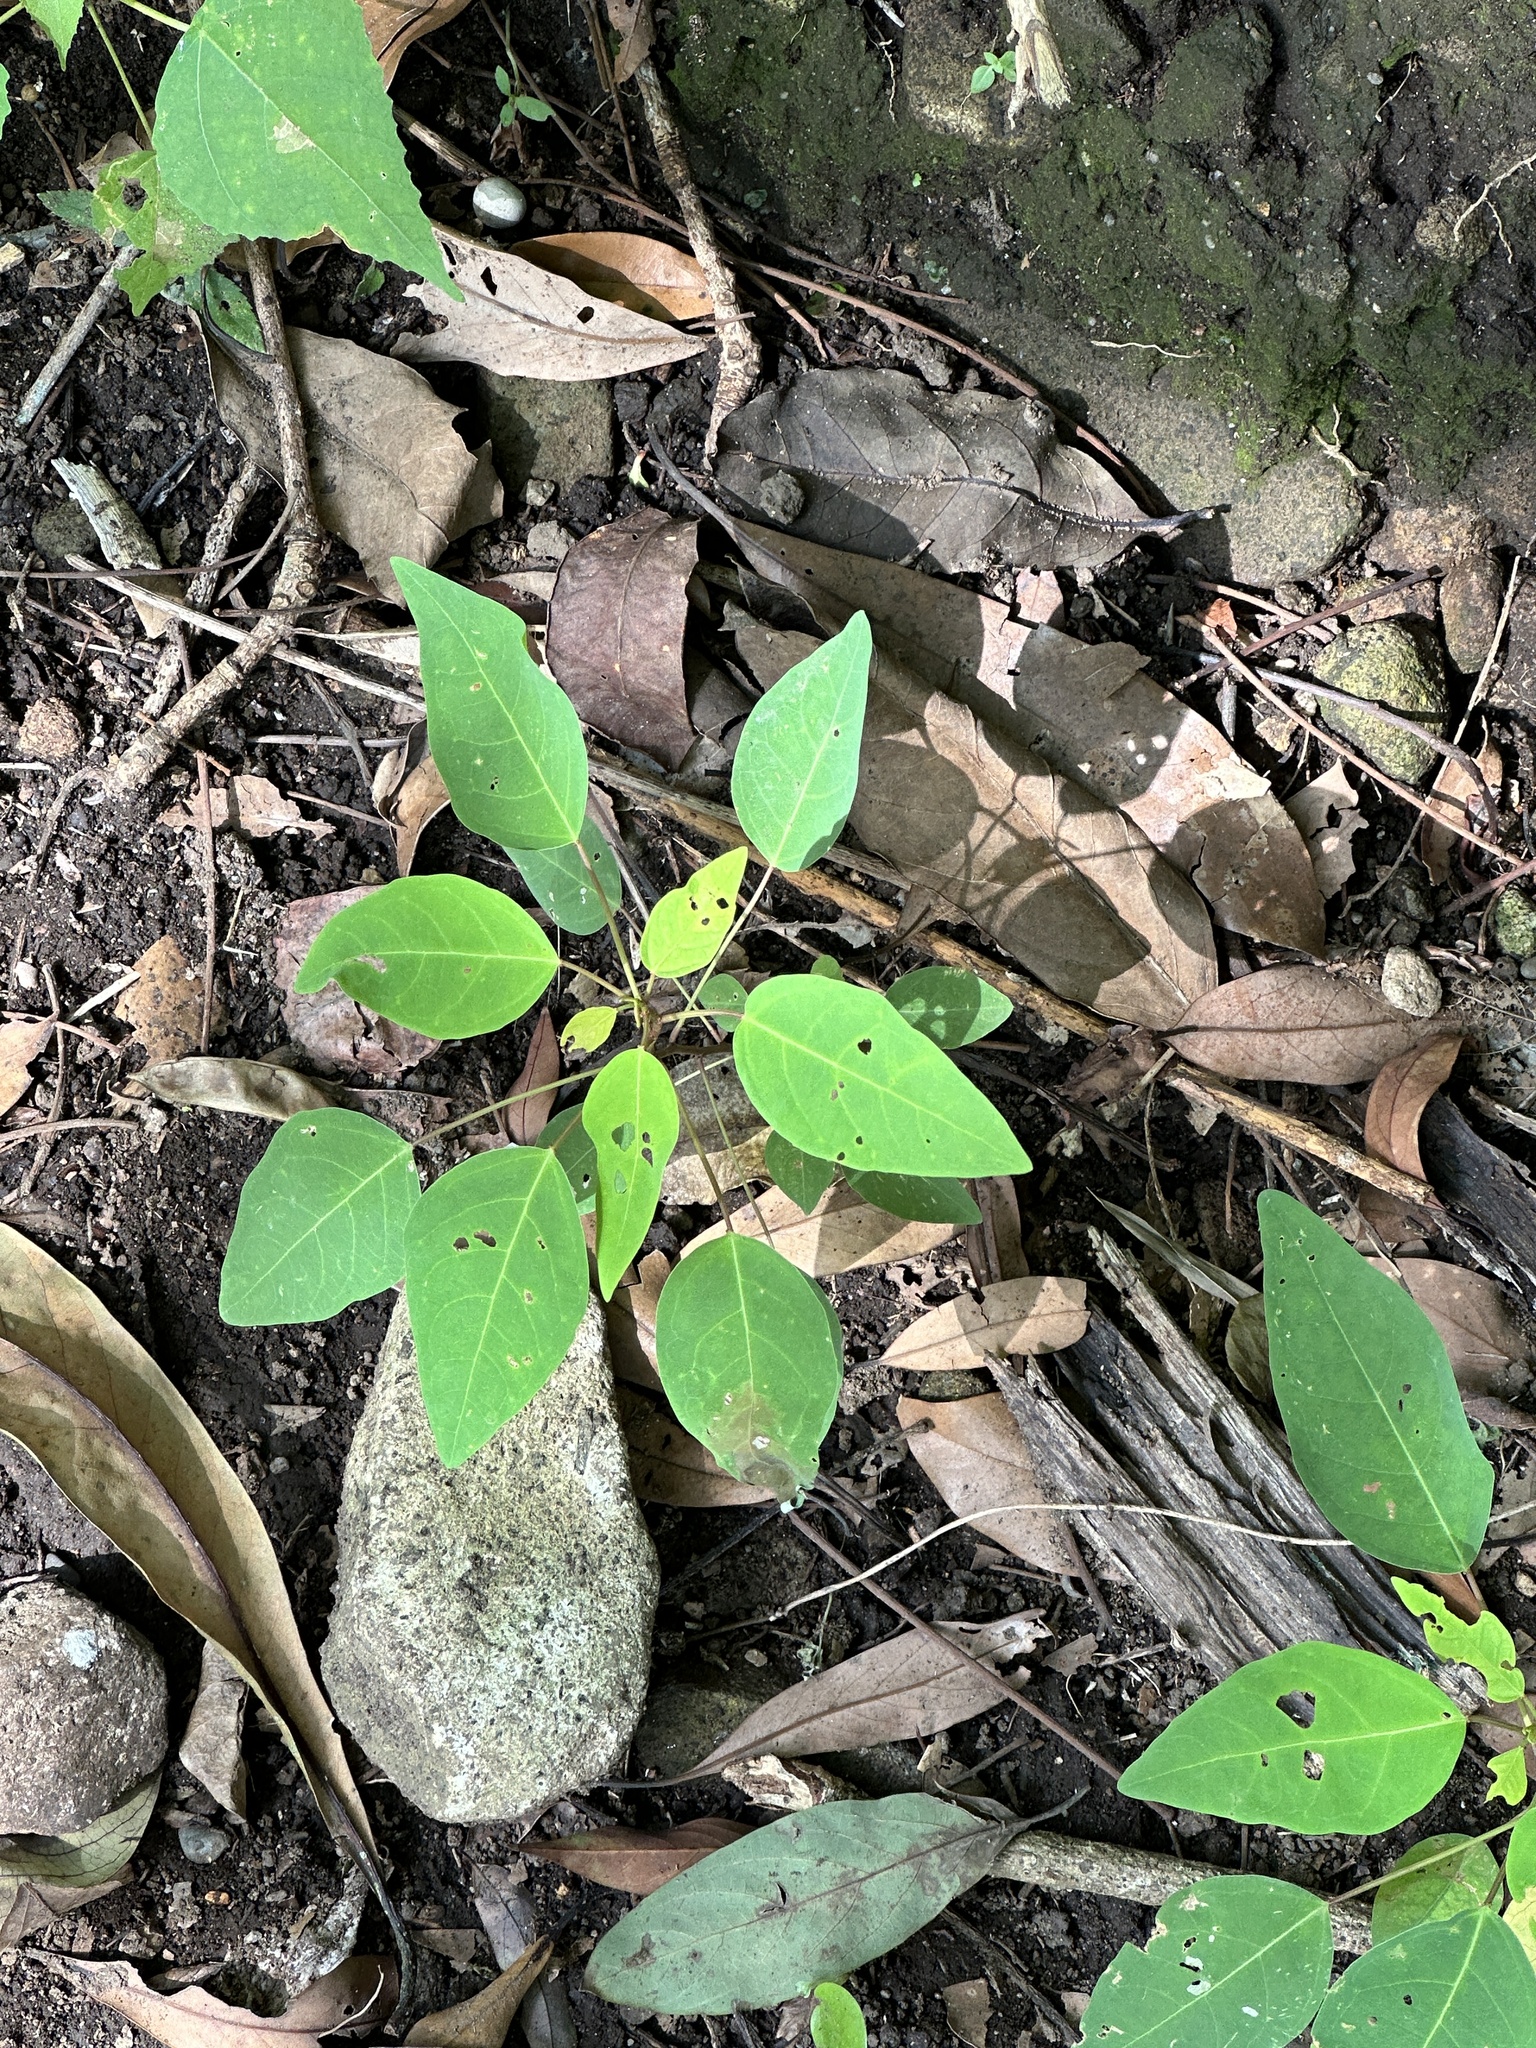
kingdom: Plantae
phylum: Tracheophyta
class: Magnoliopsida
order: Malpighiales
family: Euphorbiaceae
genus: Triadica
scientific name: Triadica cochinchinensis
